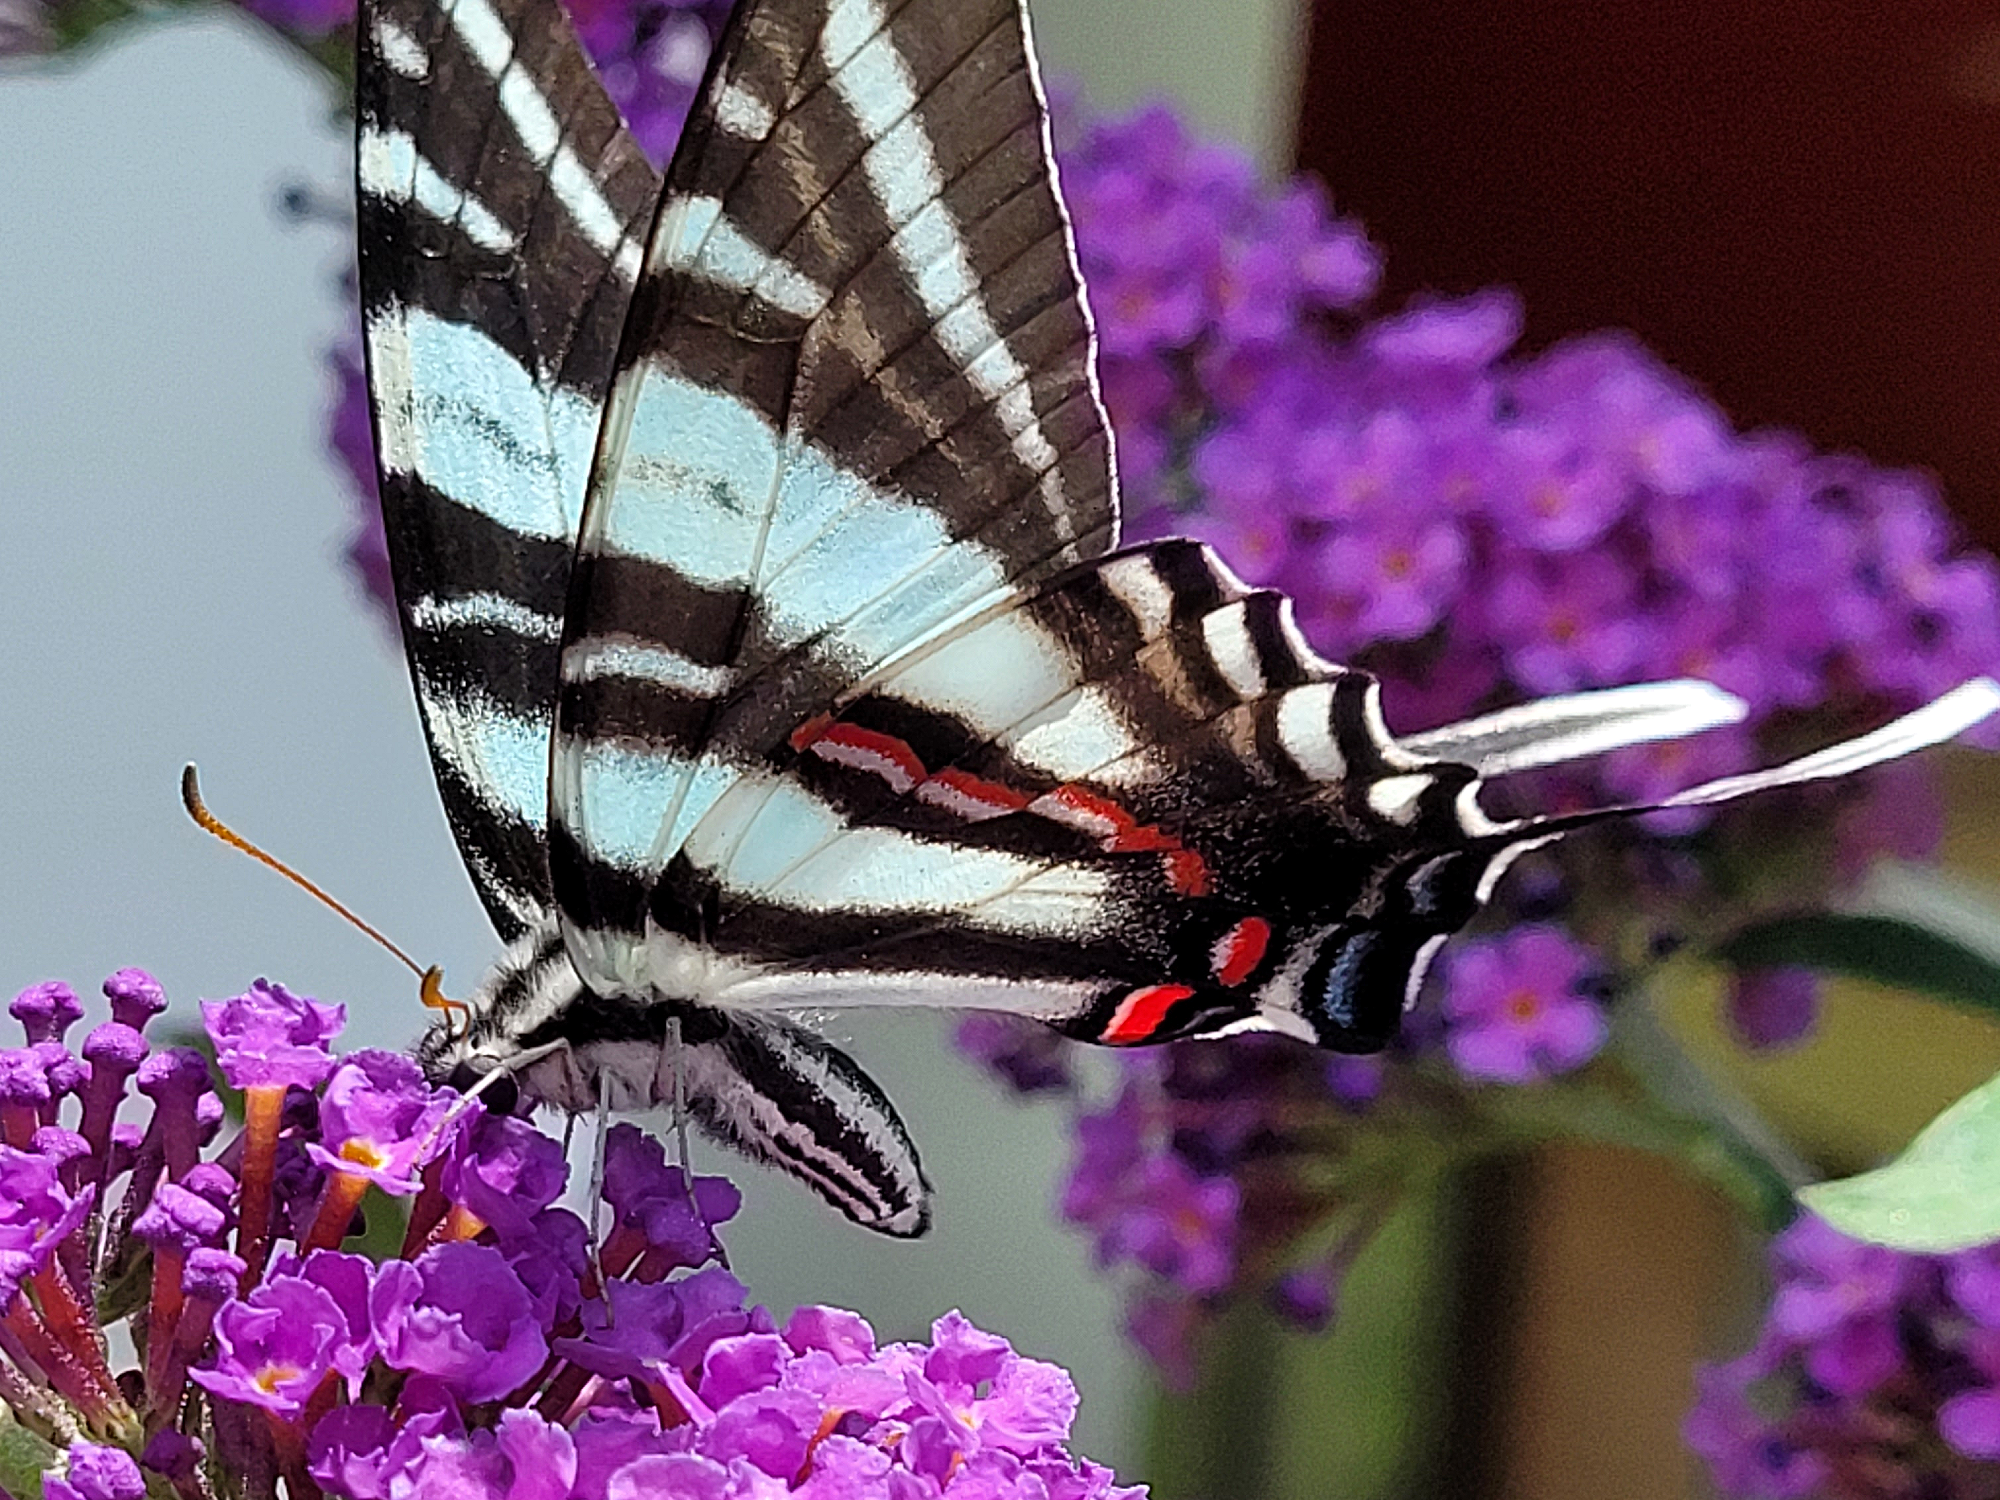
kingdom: Animalia
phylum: Arthropoda
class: Insecta
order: Lepidoptera
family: Papilionidae
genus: Protographium
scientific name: Protographium marcellus
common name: Zebra swallowtail
